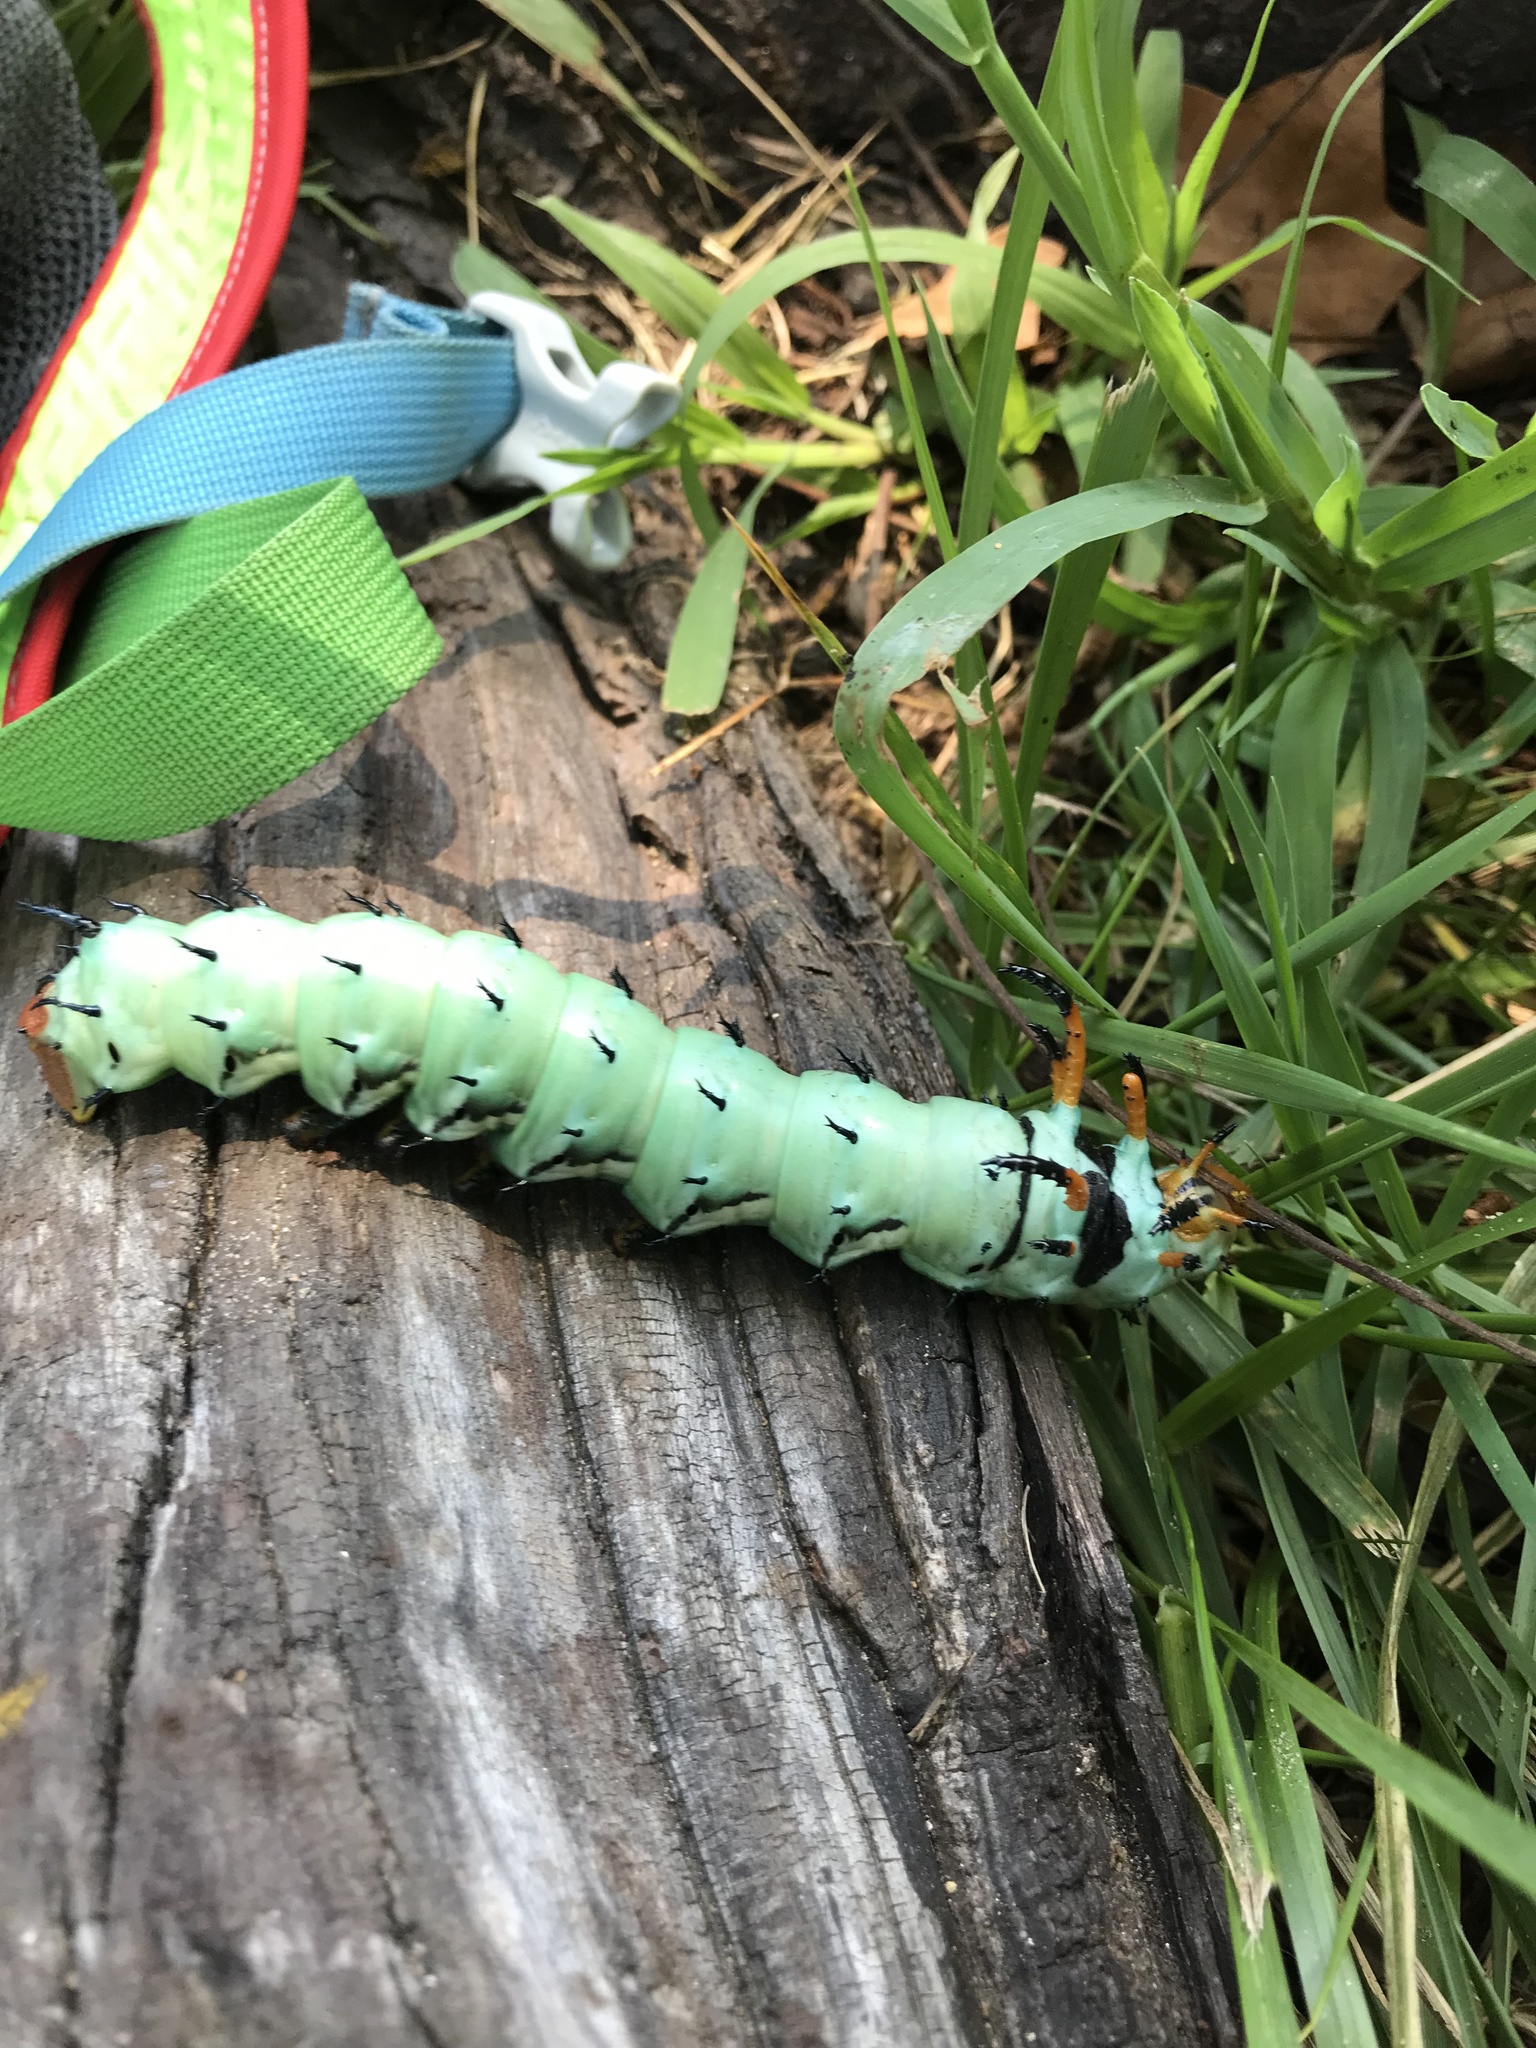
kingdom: Animalia
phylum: Arthropoda
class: Insecta
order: Lepidoptera
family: Saturniidae
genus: Citheronia
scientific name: Citheronia regalis
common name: Hickory horned devil
